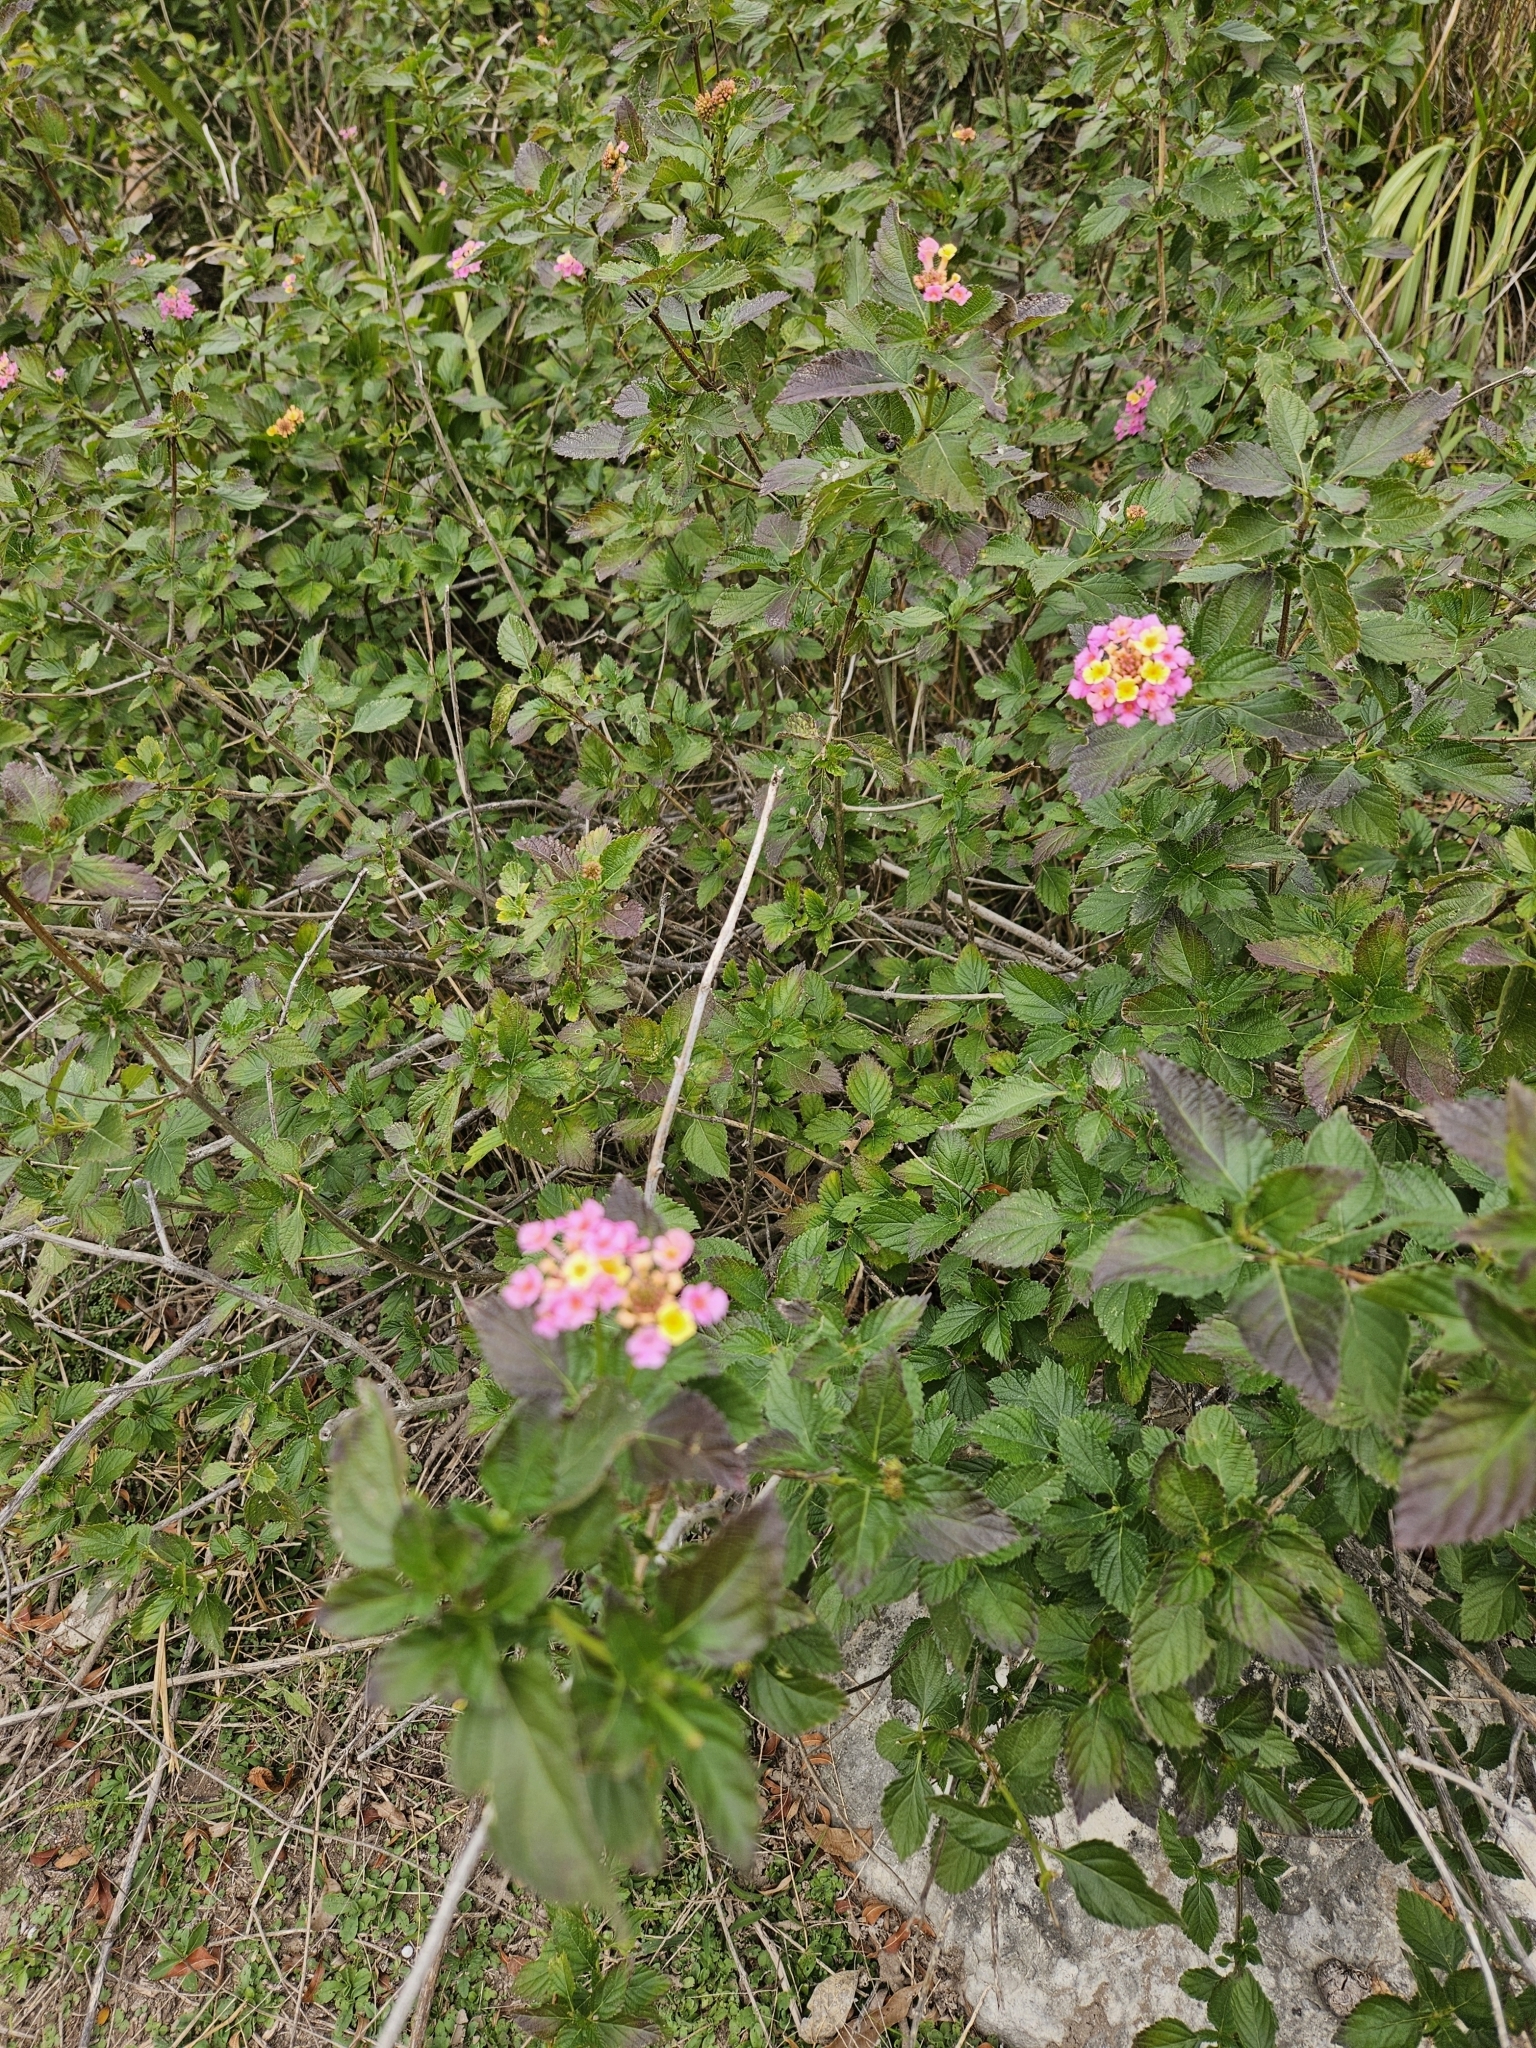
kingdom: Plantae
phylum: Tracheophyta
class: Magnoliopsida
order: Lamiales
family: Verbenaceae
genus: Lantana
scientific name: Lantana strigocamara
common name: Lantana
